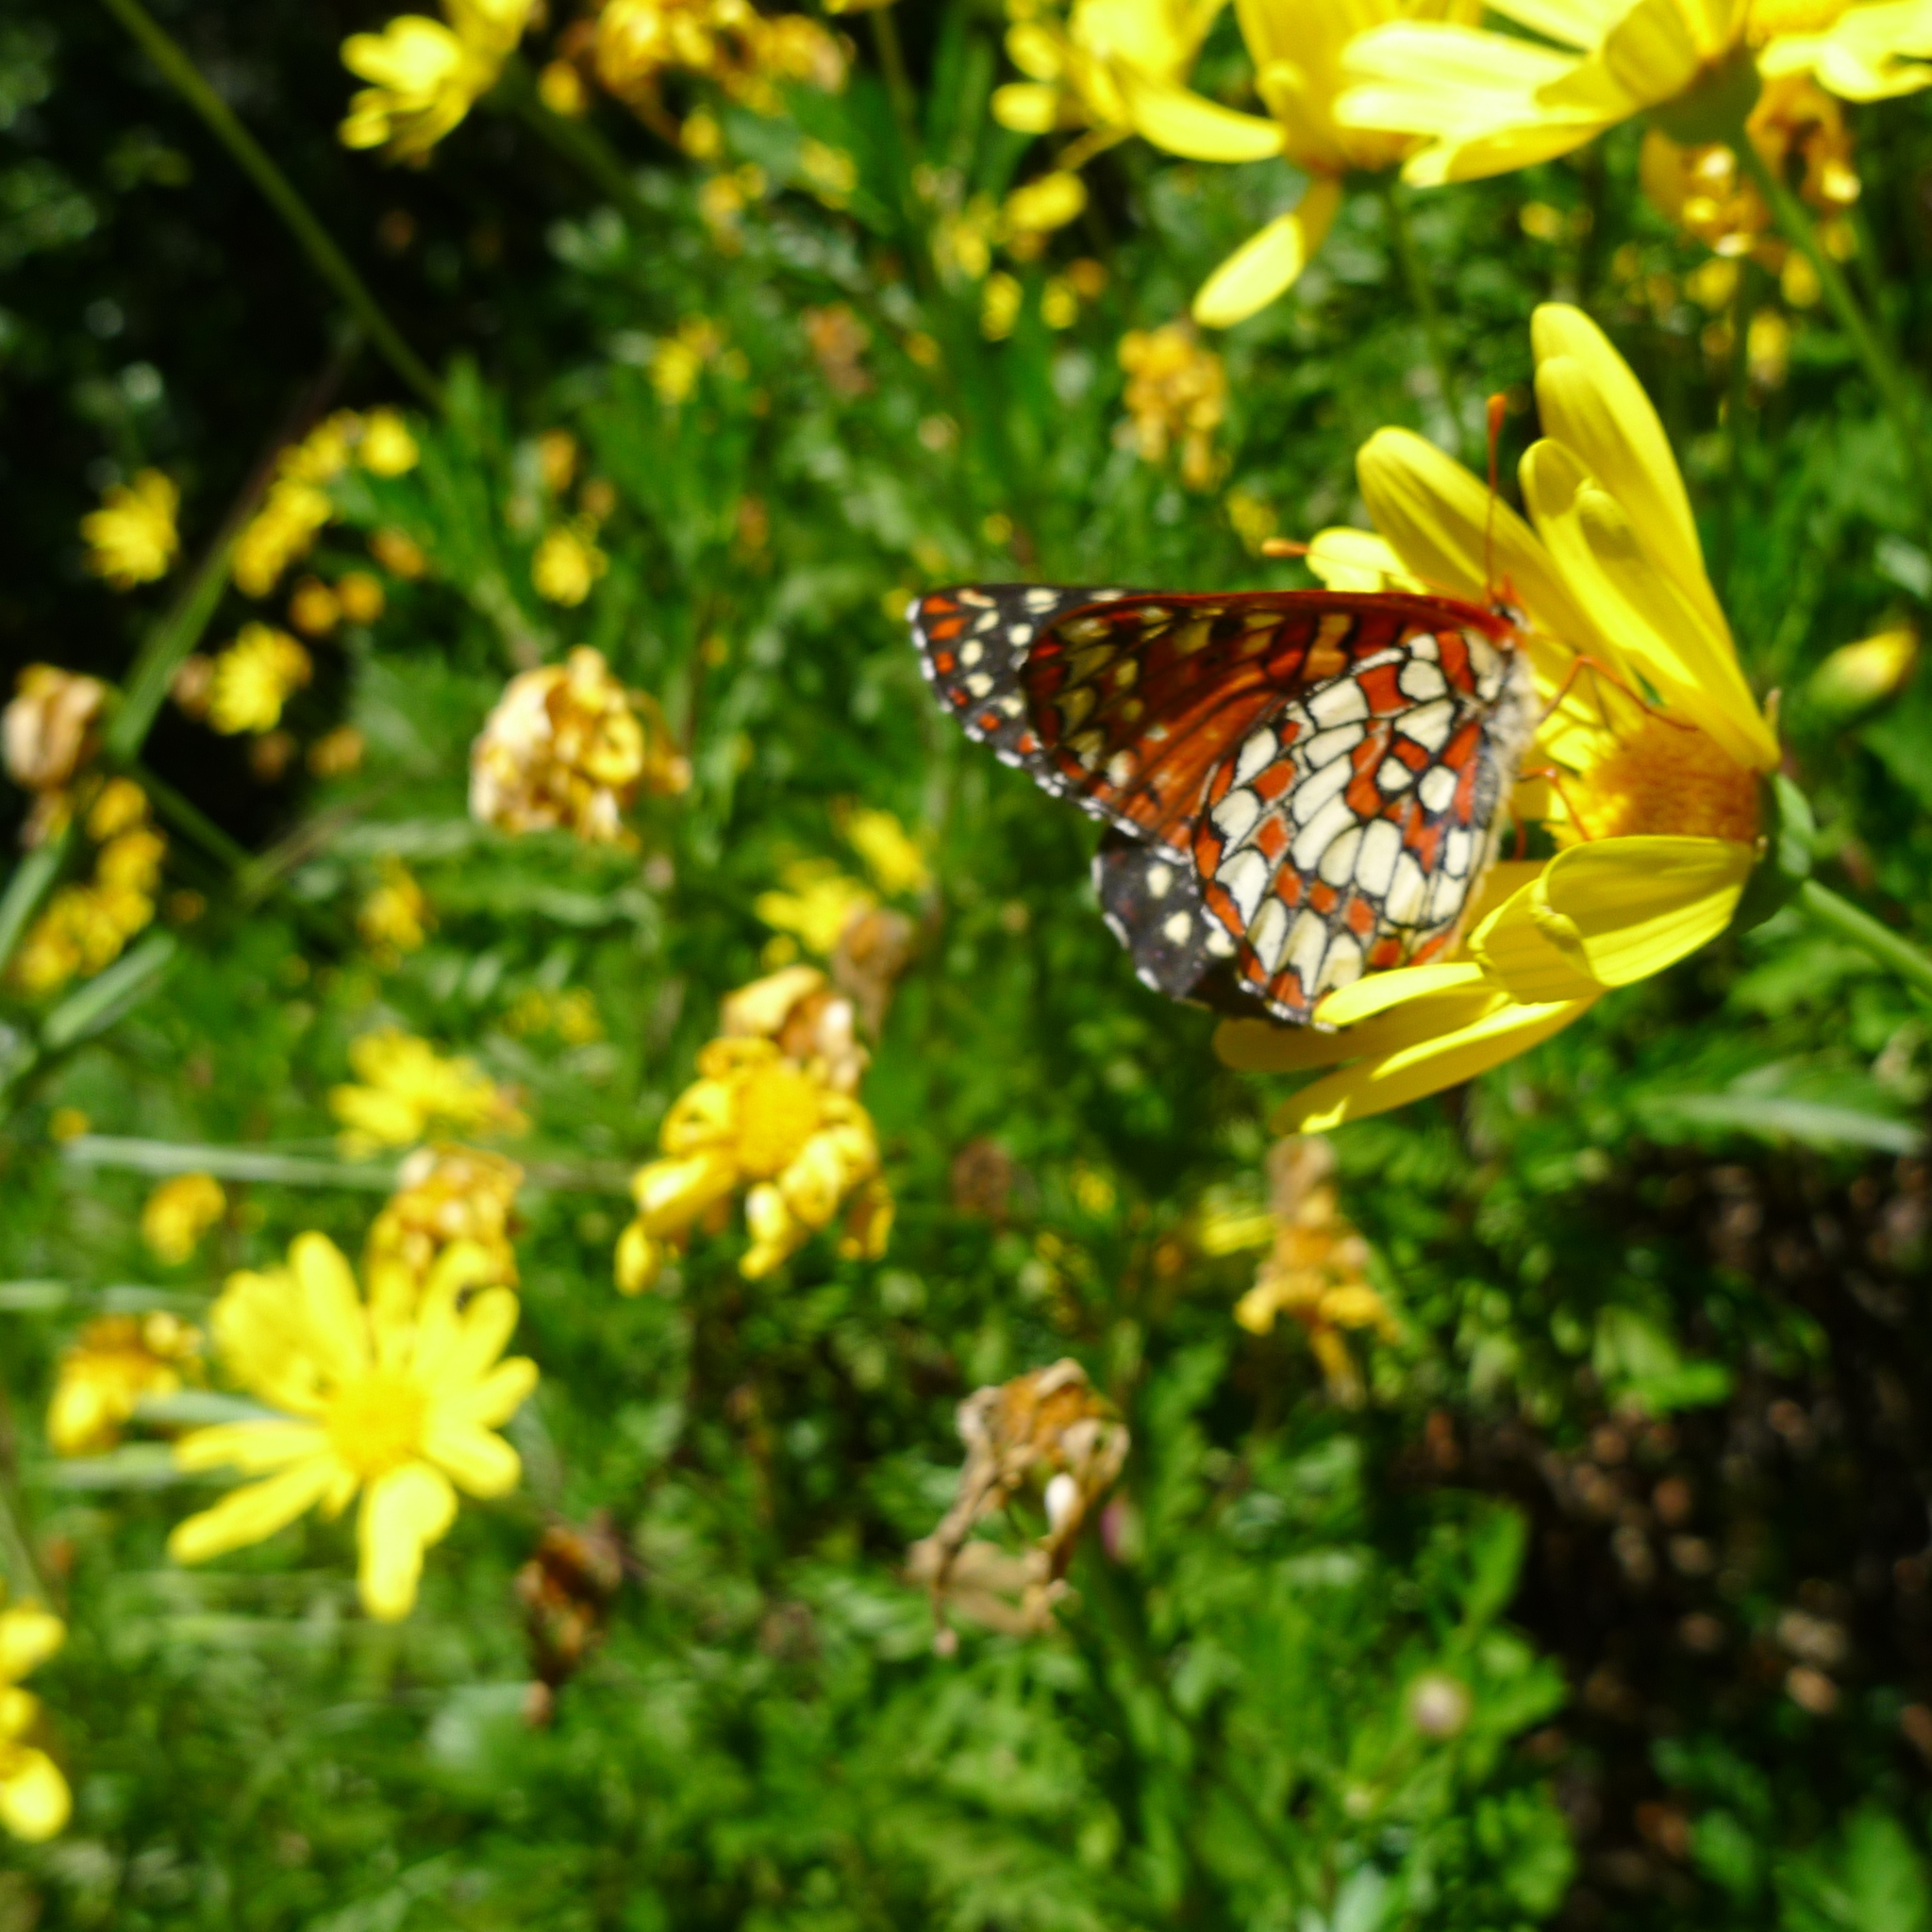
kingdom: Animalia
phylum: Arthropoda
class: Insecta
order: Lepidoptera
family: Nymphalidae
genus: Occidryas
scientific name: Occidryas chalcedona
